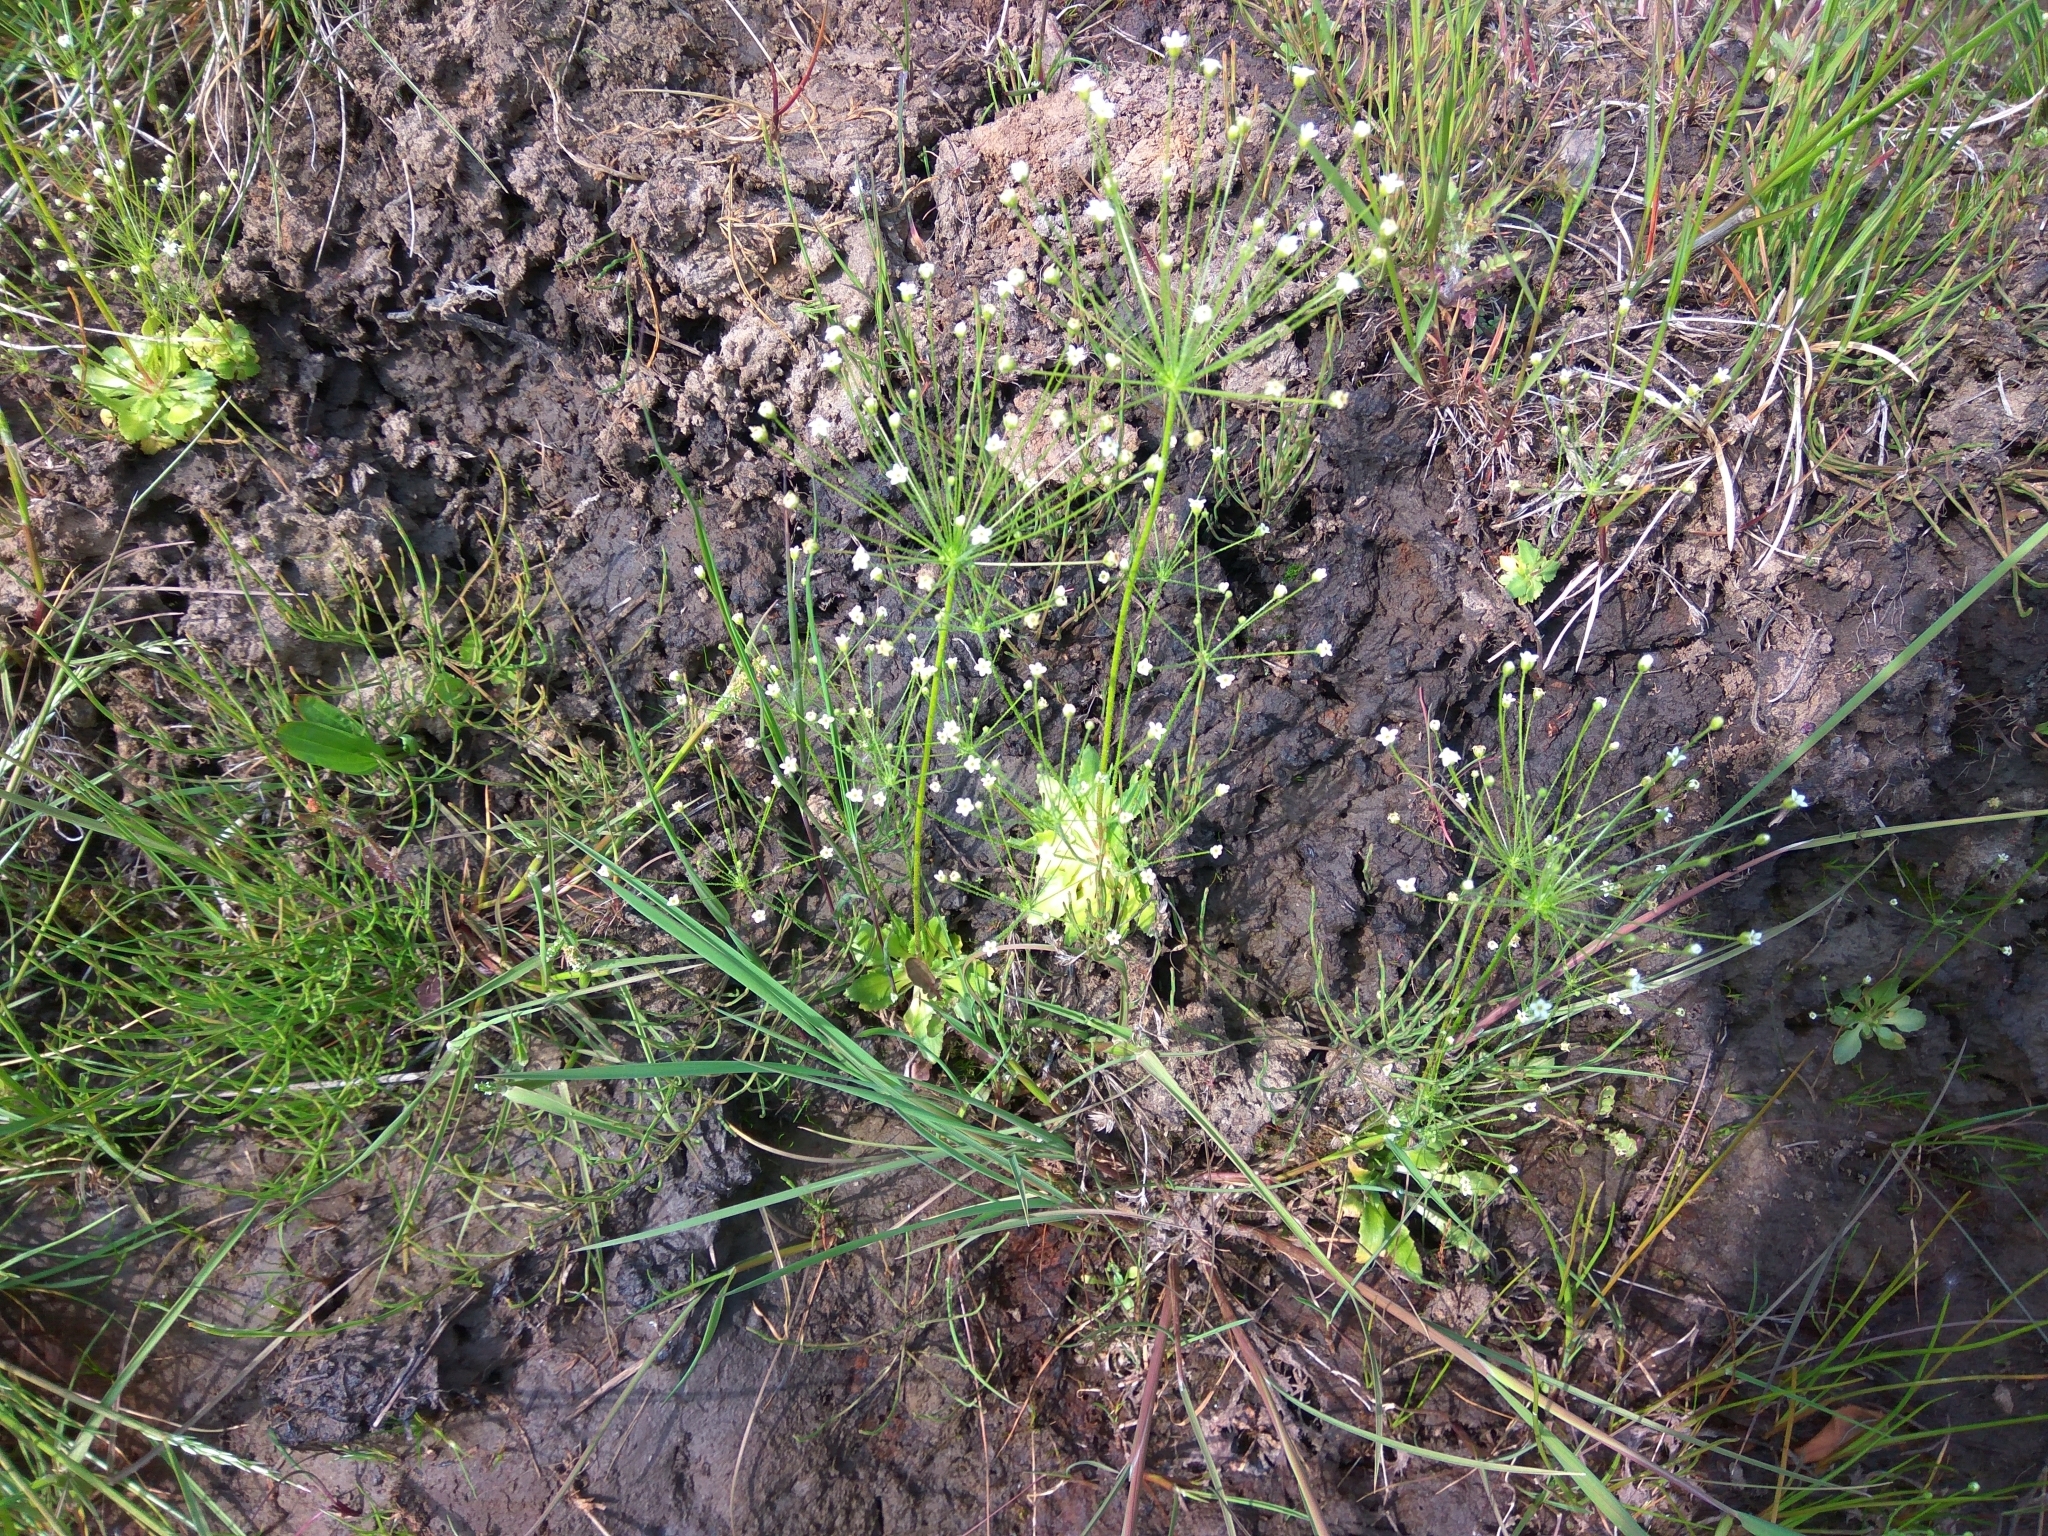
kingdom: Plantae
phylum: Tracheophyta
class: Magnoliopsida
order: Ericales
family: Primulaceae
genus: Androsace
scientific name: Androsace filiformis
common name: Filiform rock jasmine
